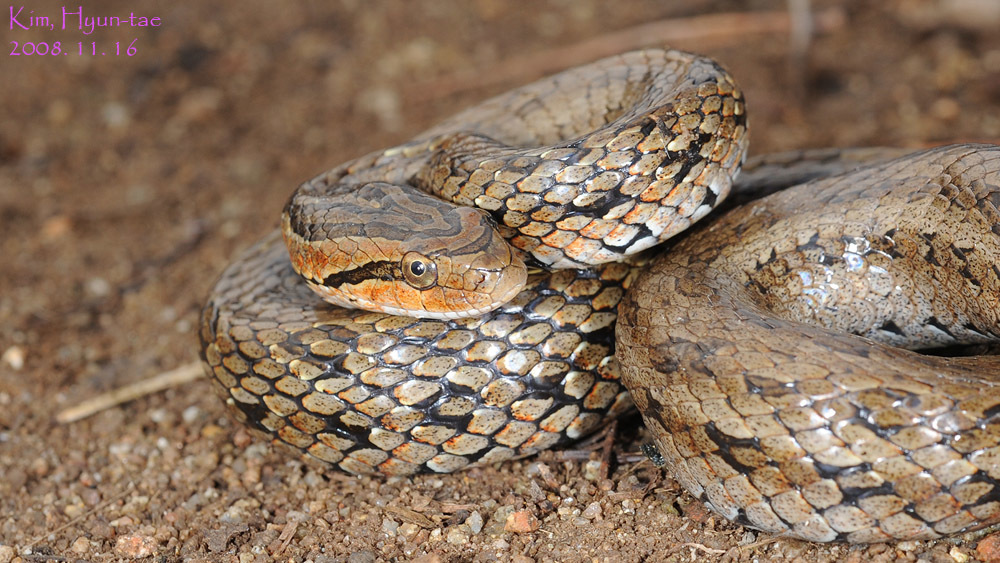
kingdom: Animalia
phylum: Chordata
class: Squamata
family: Colubridae
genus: Oocatochus
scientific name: Oocatochus rufodorsatus
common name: Frog-eating rat snake
